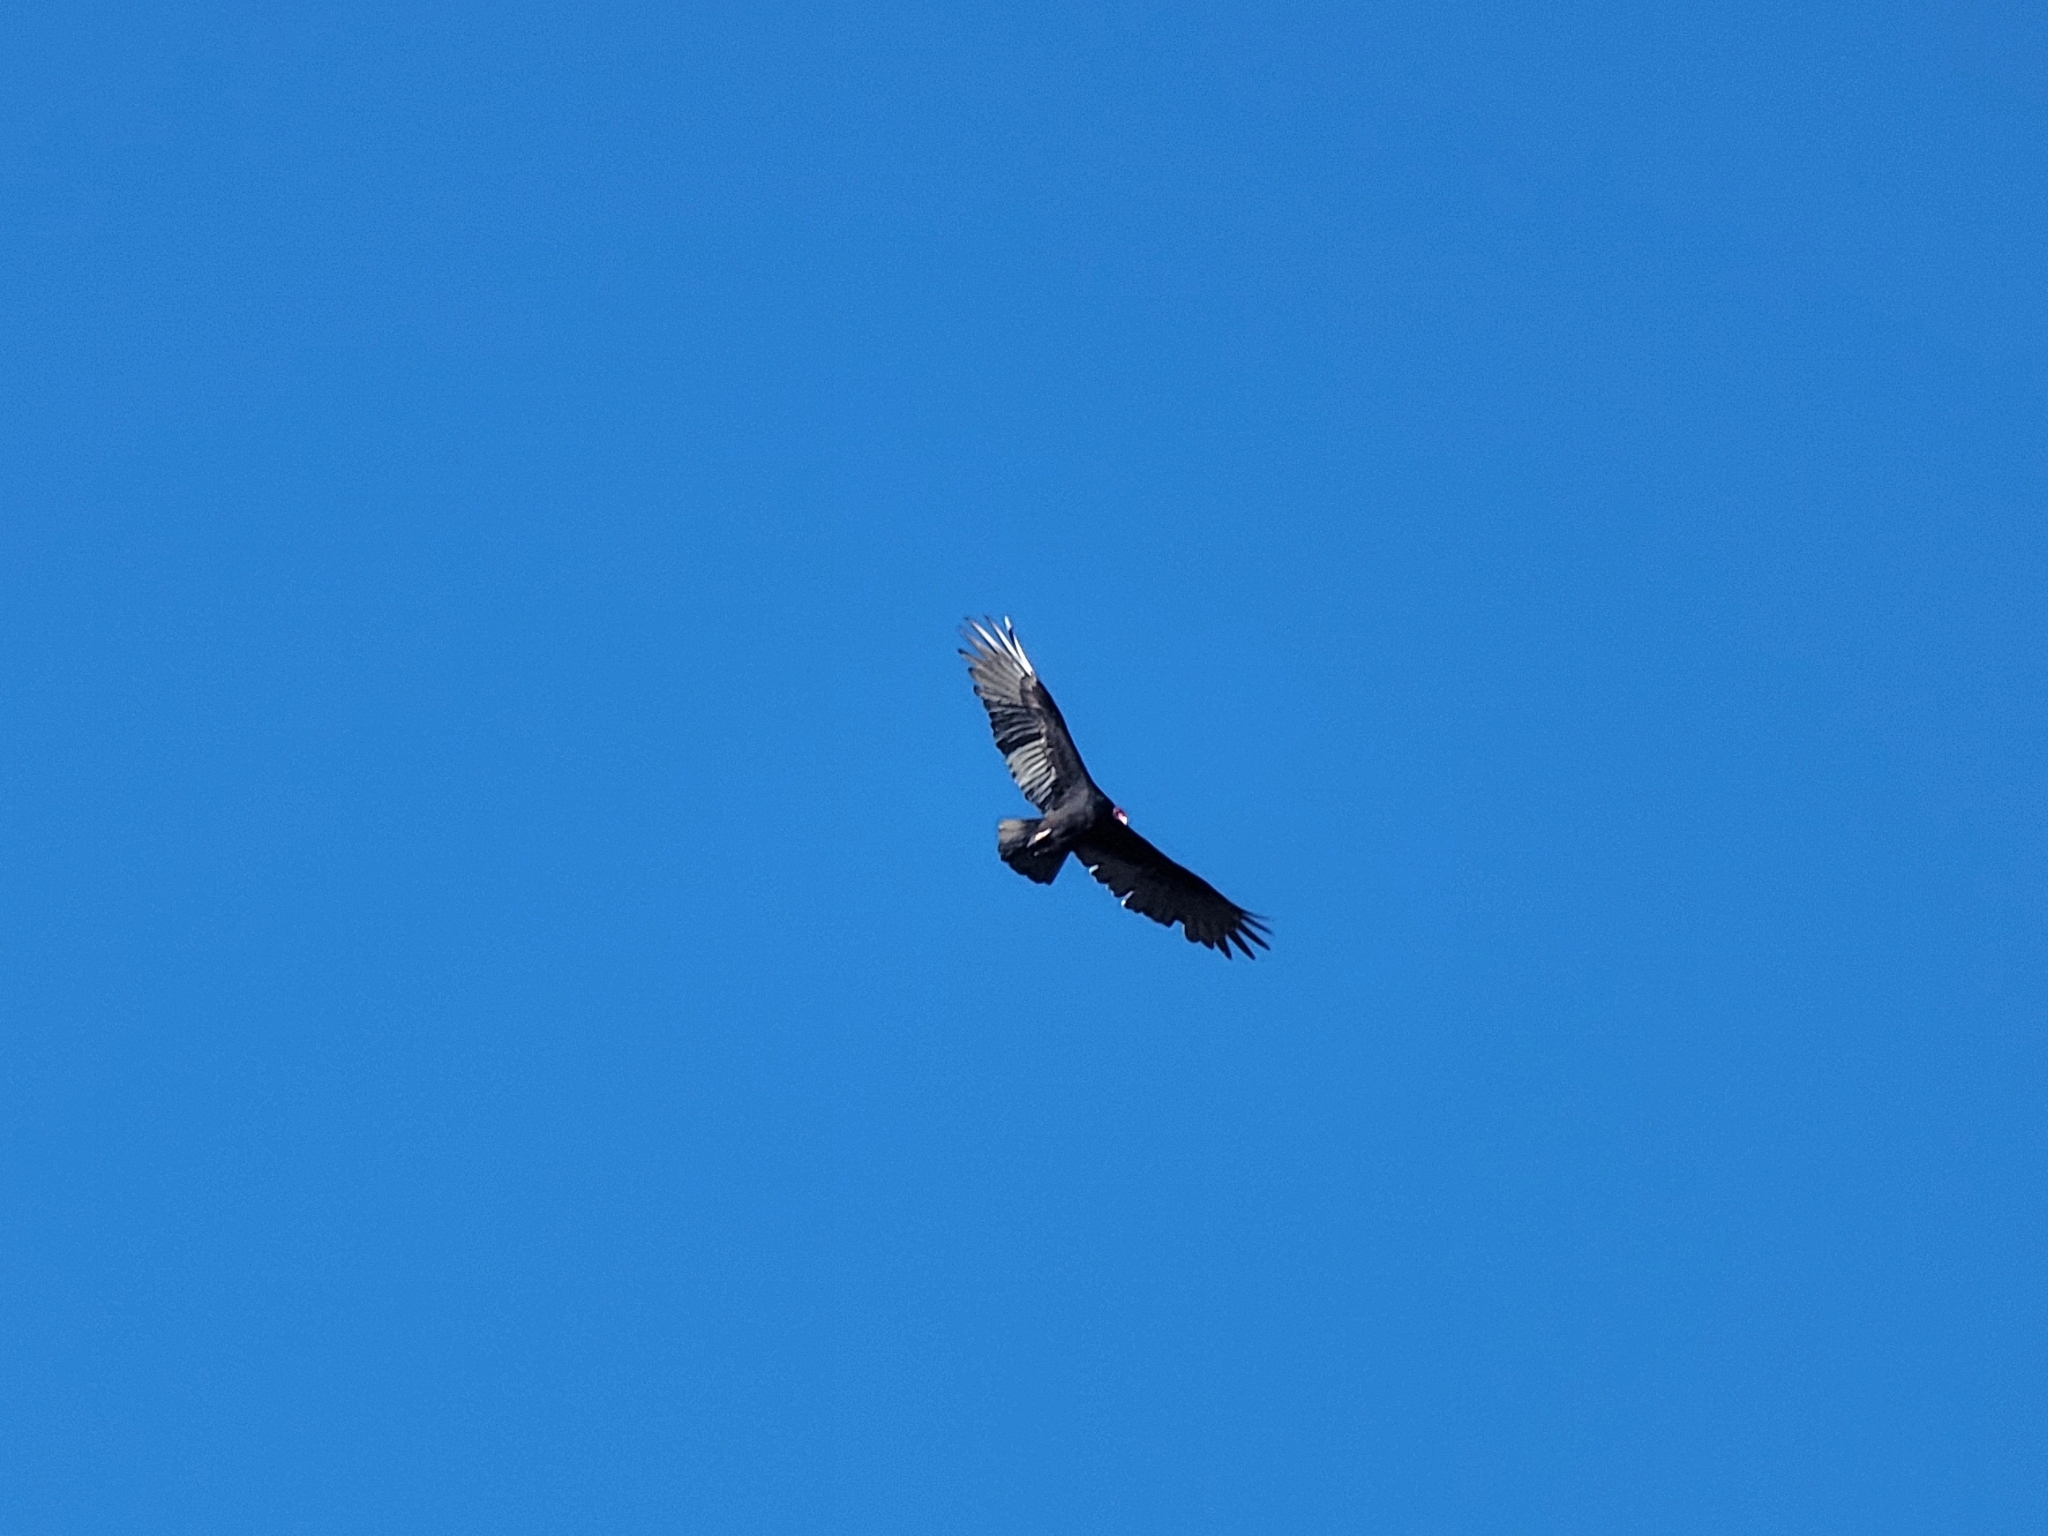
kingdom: Animalia
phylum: Chordata
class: Aves
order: Accipitriformes
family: Cathartidae
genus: Cathartes
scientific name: Cathartes aura
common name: Turkey vulture
